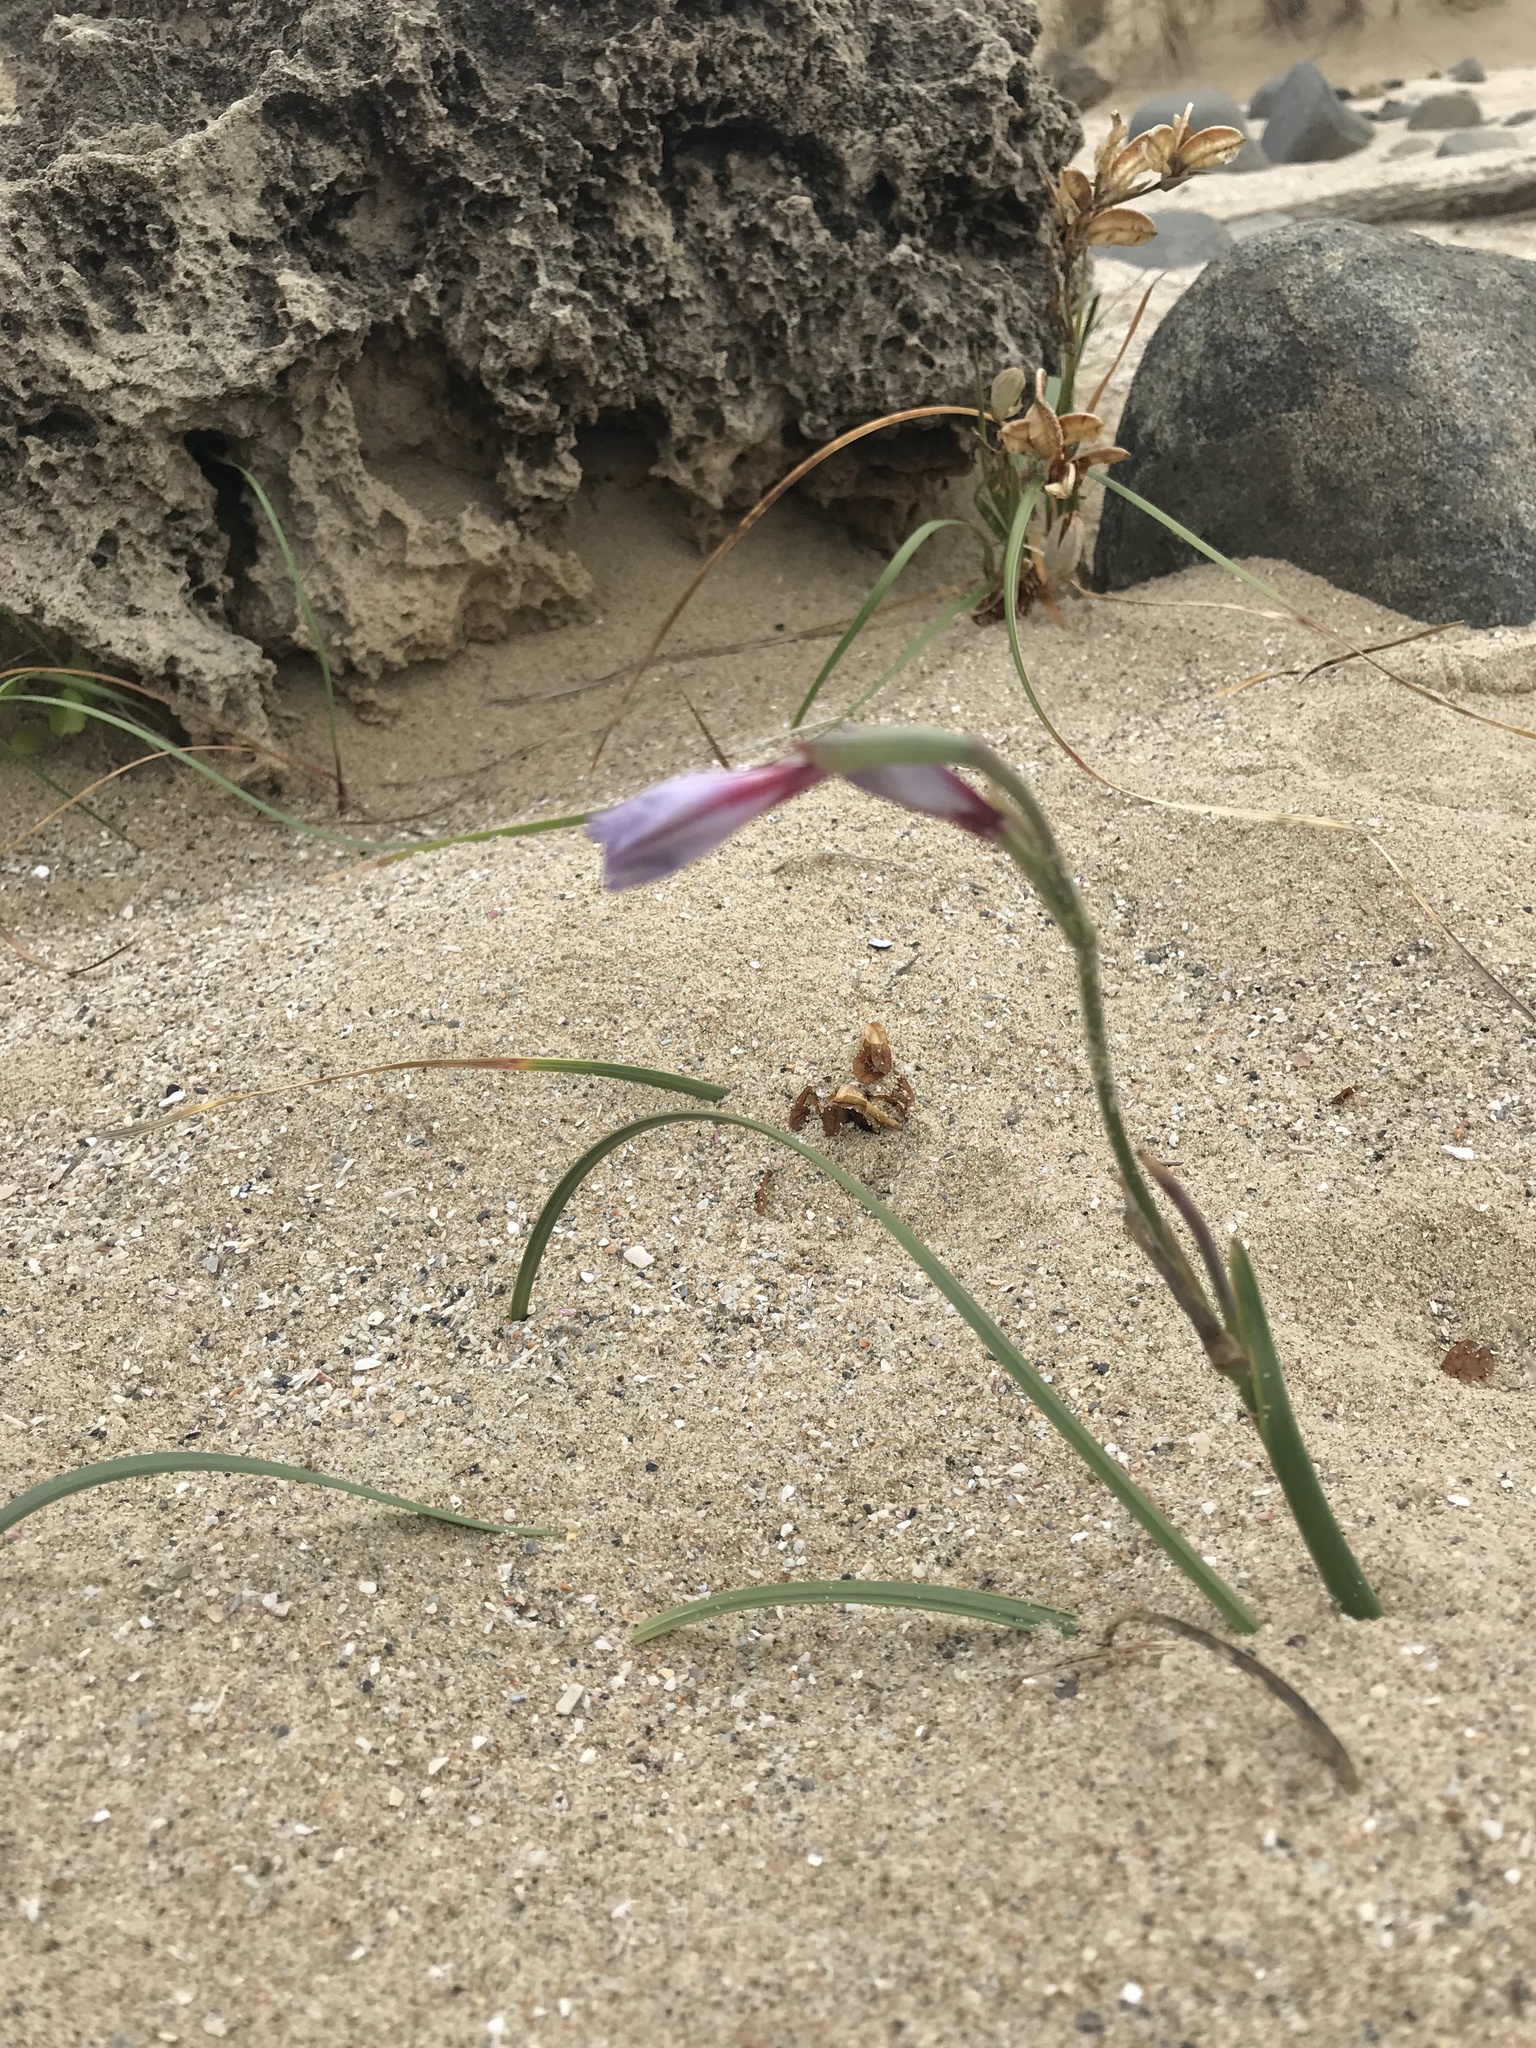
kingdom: Plantae
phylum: Tracheophyta
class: Liliopsida
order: Asparagales
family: Iridaceae
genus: Gladiolus
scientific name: Gladiolus gueinzii
